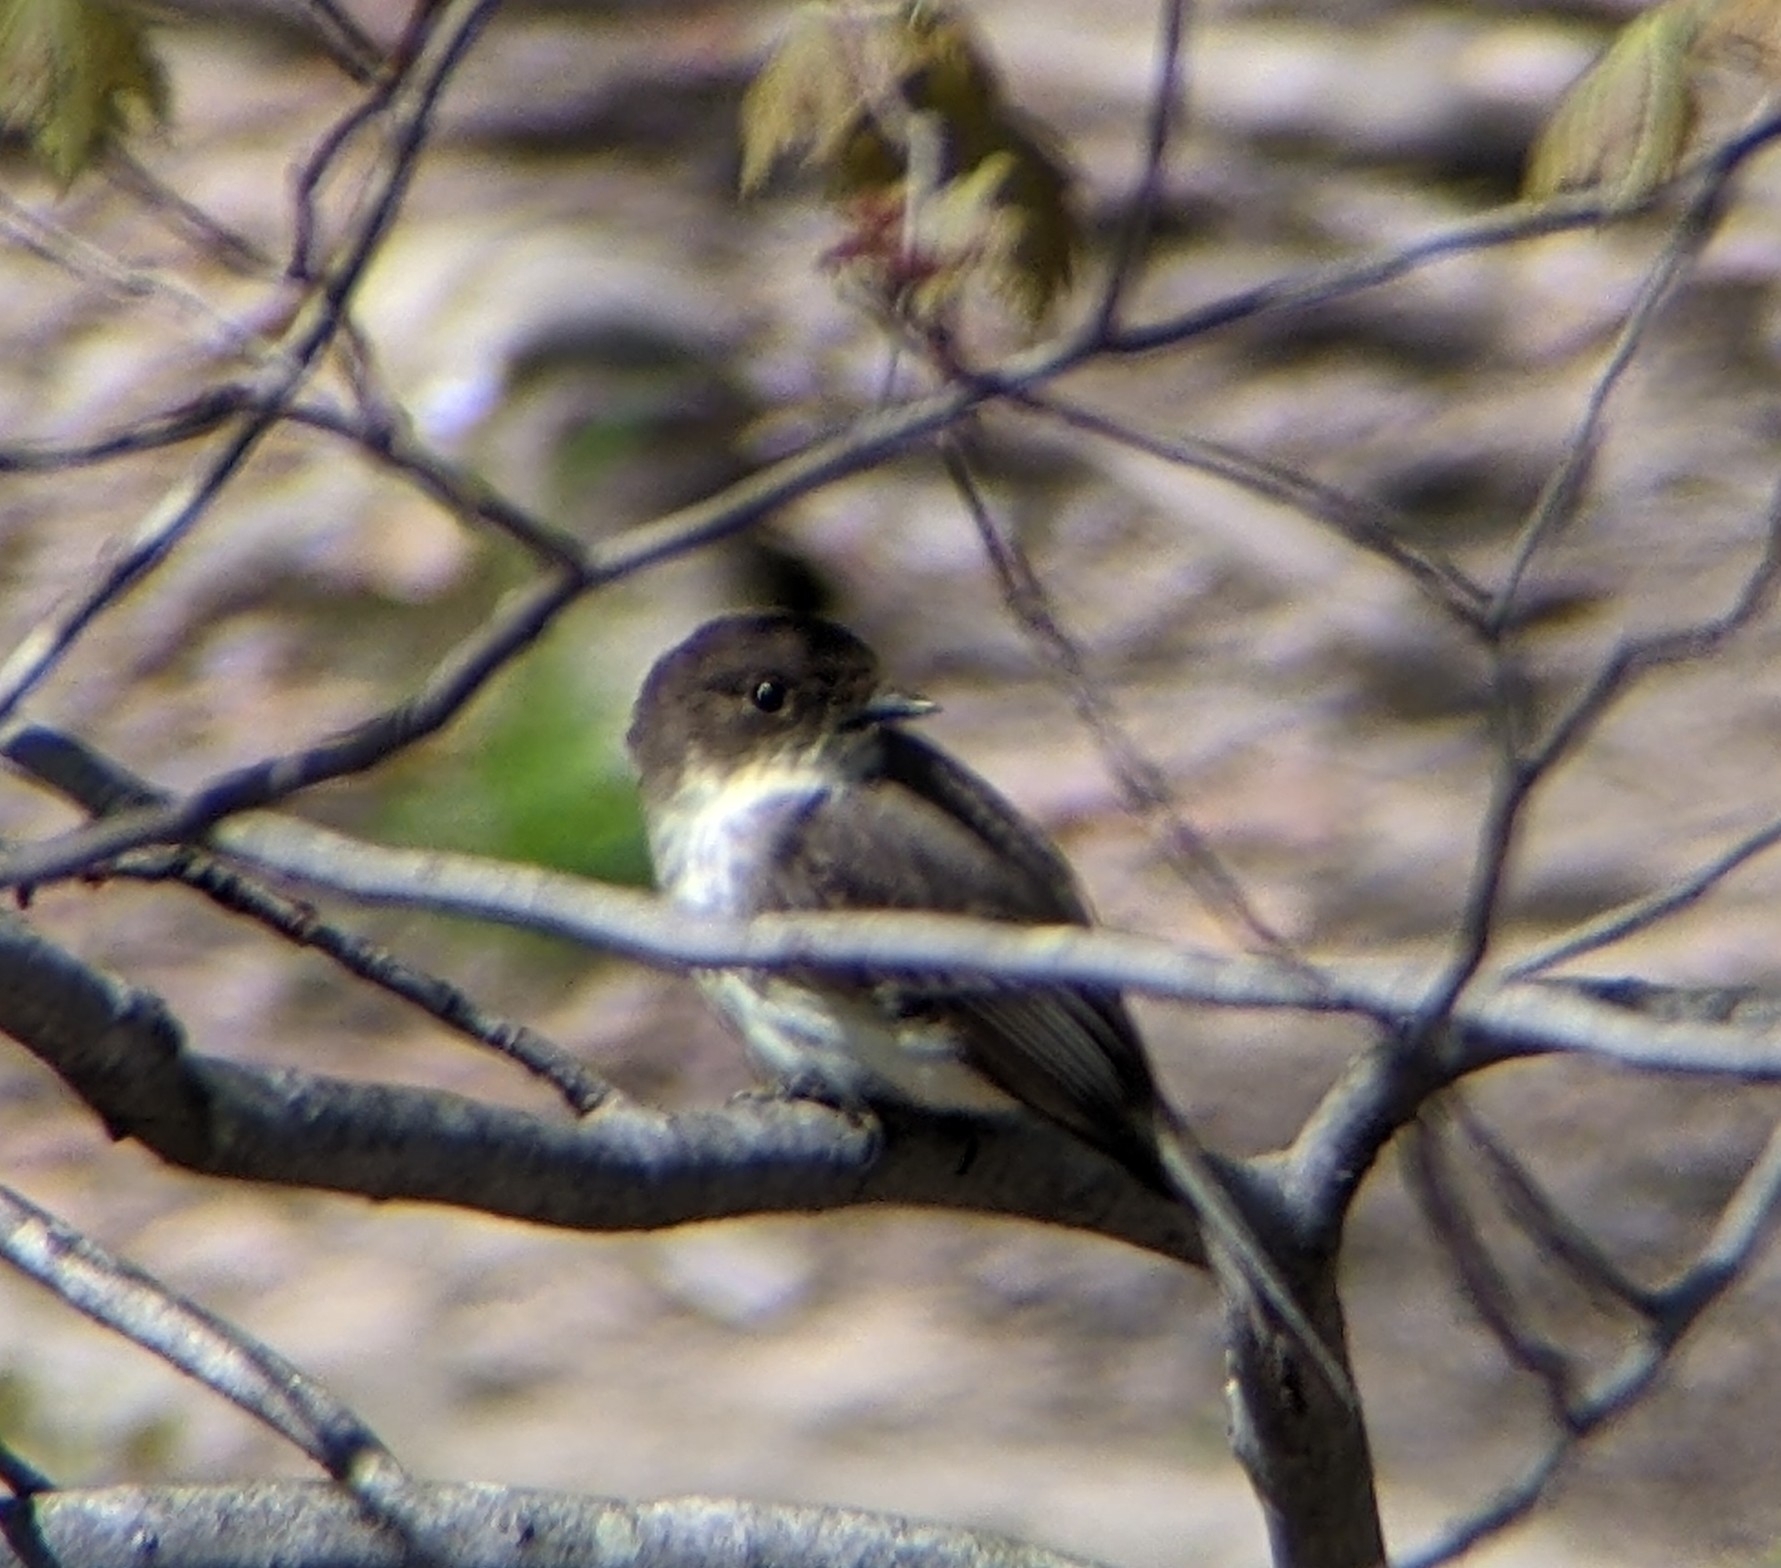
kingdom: Animalia
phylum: Chordata
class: Aves
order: Passeriformes
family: Tyrannidae
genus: Sayornis
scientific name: Sayornis phoebe
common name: Eastern phoebe
